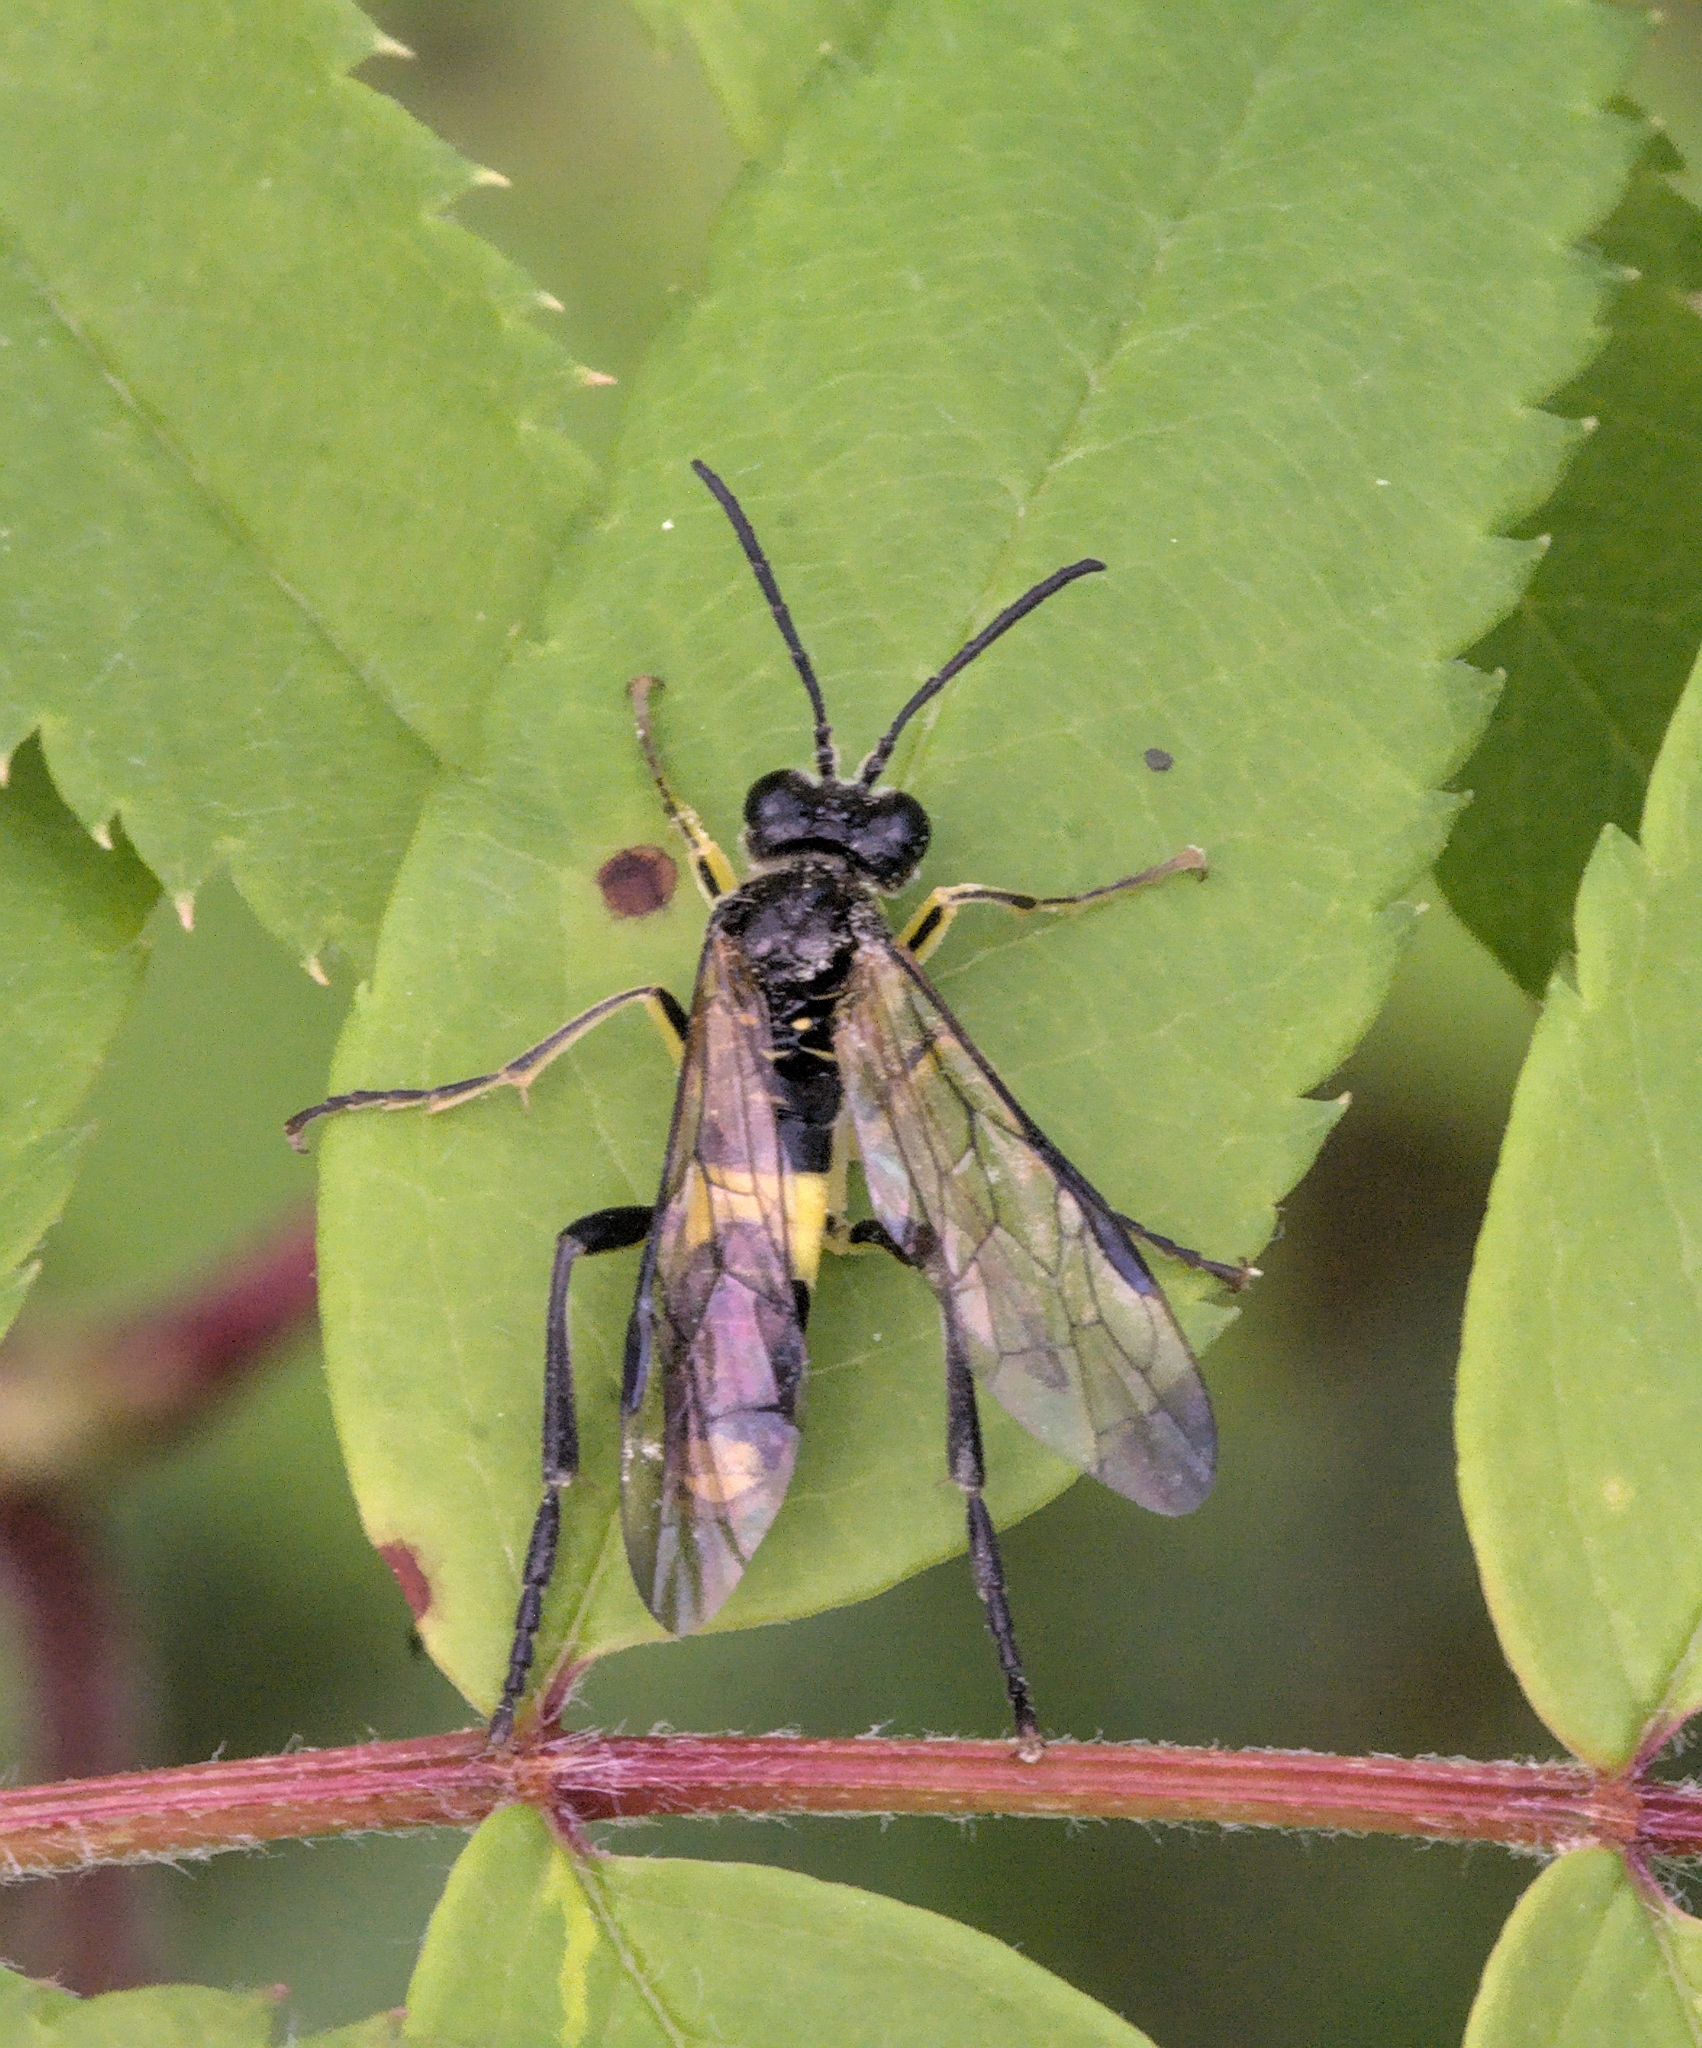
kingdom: Animalia
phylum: Arthropoda
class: Insecta
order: Hymenoptera
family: Tenthredinidae
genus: Tenthredo
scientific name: Tenthredo temula
